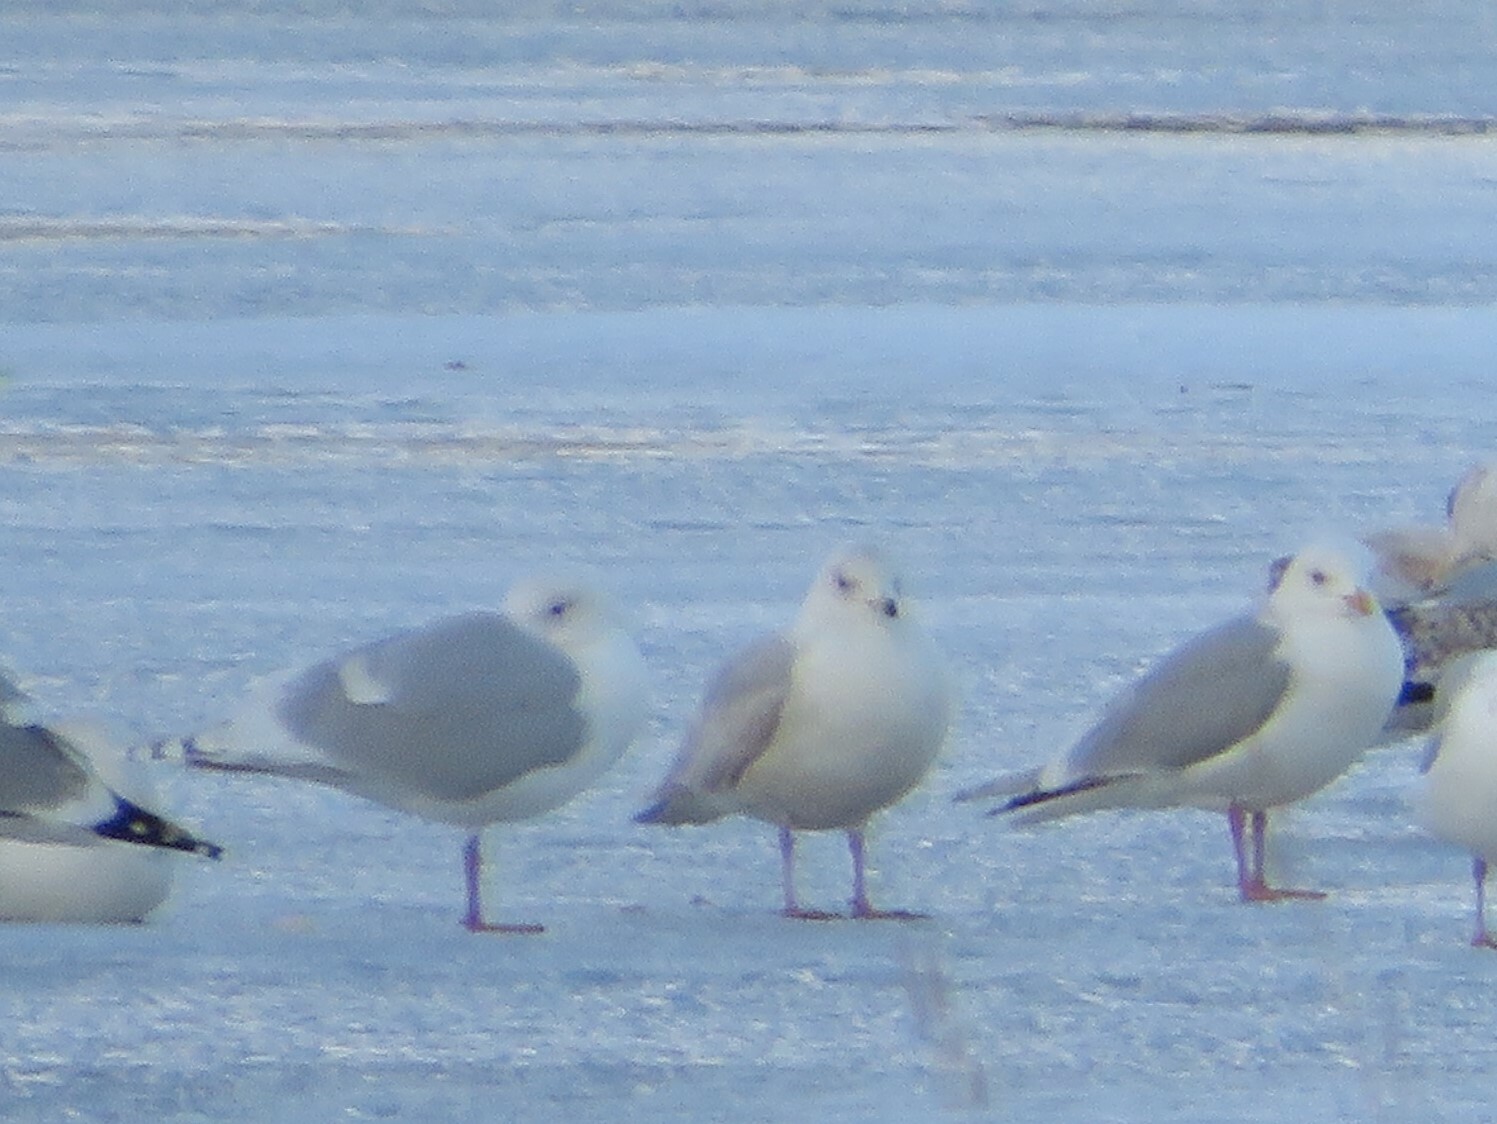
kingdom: Animalia
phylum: Chordata
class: Aves
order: Charadriiformes
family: Laridae
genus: Larus
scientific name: Larus glaucoides
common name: Iceland gull
